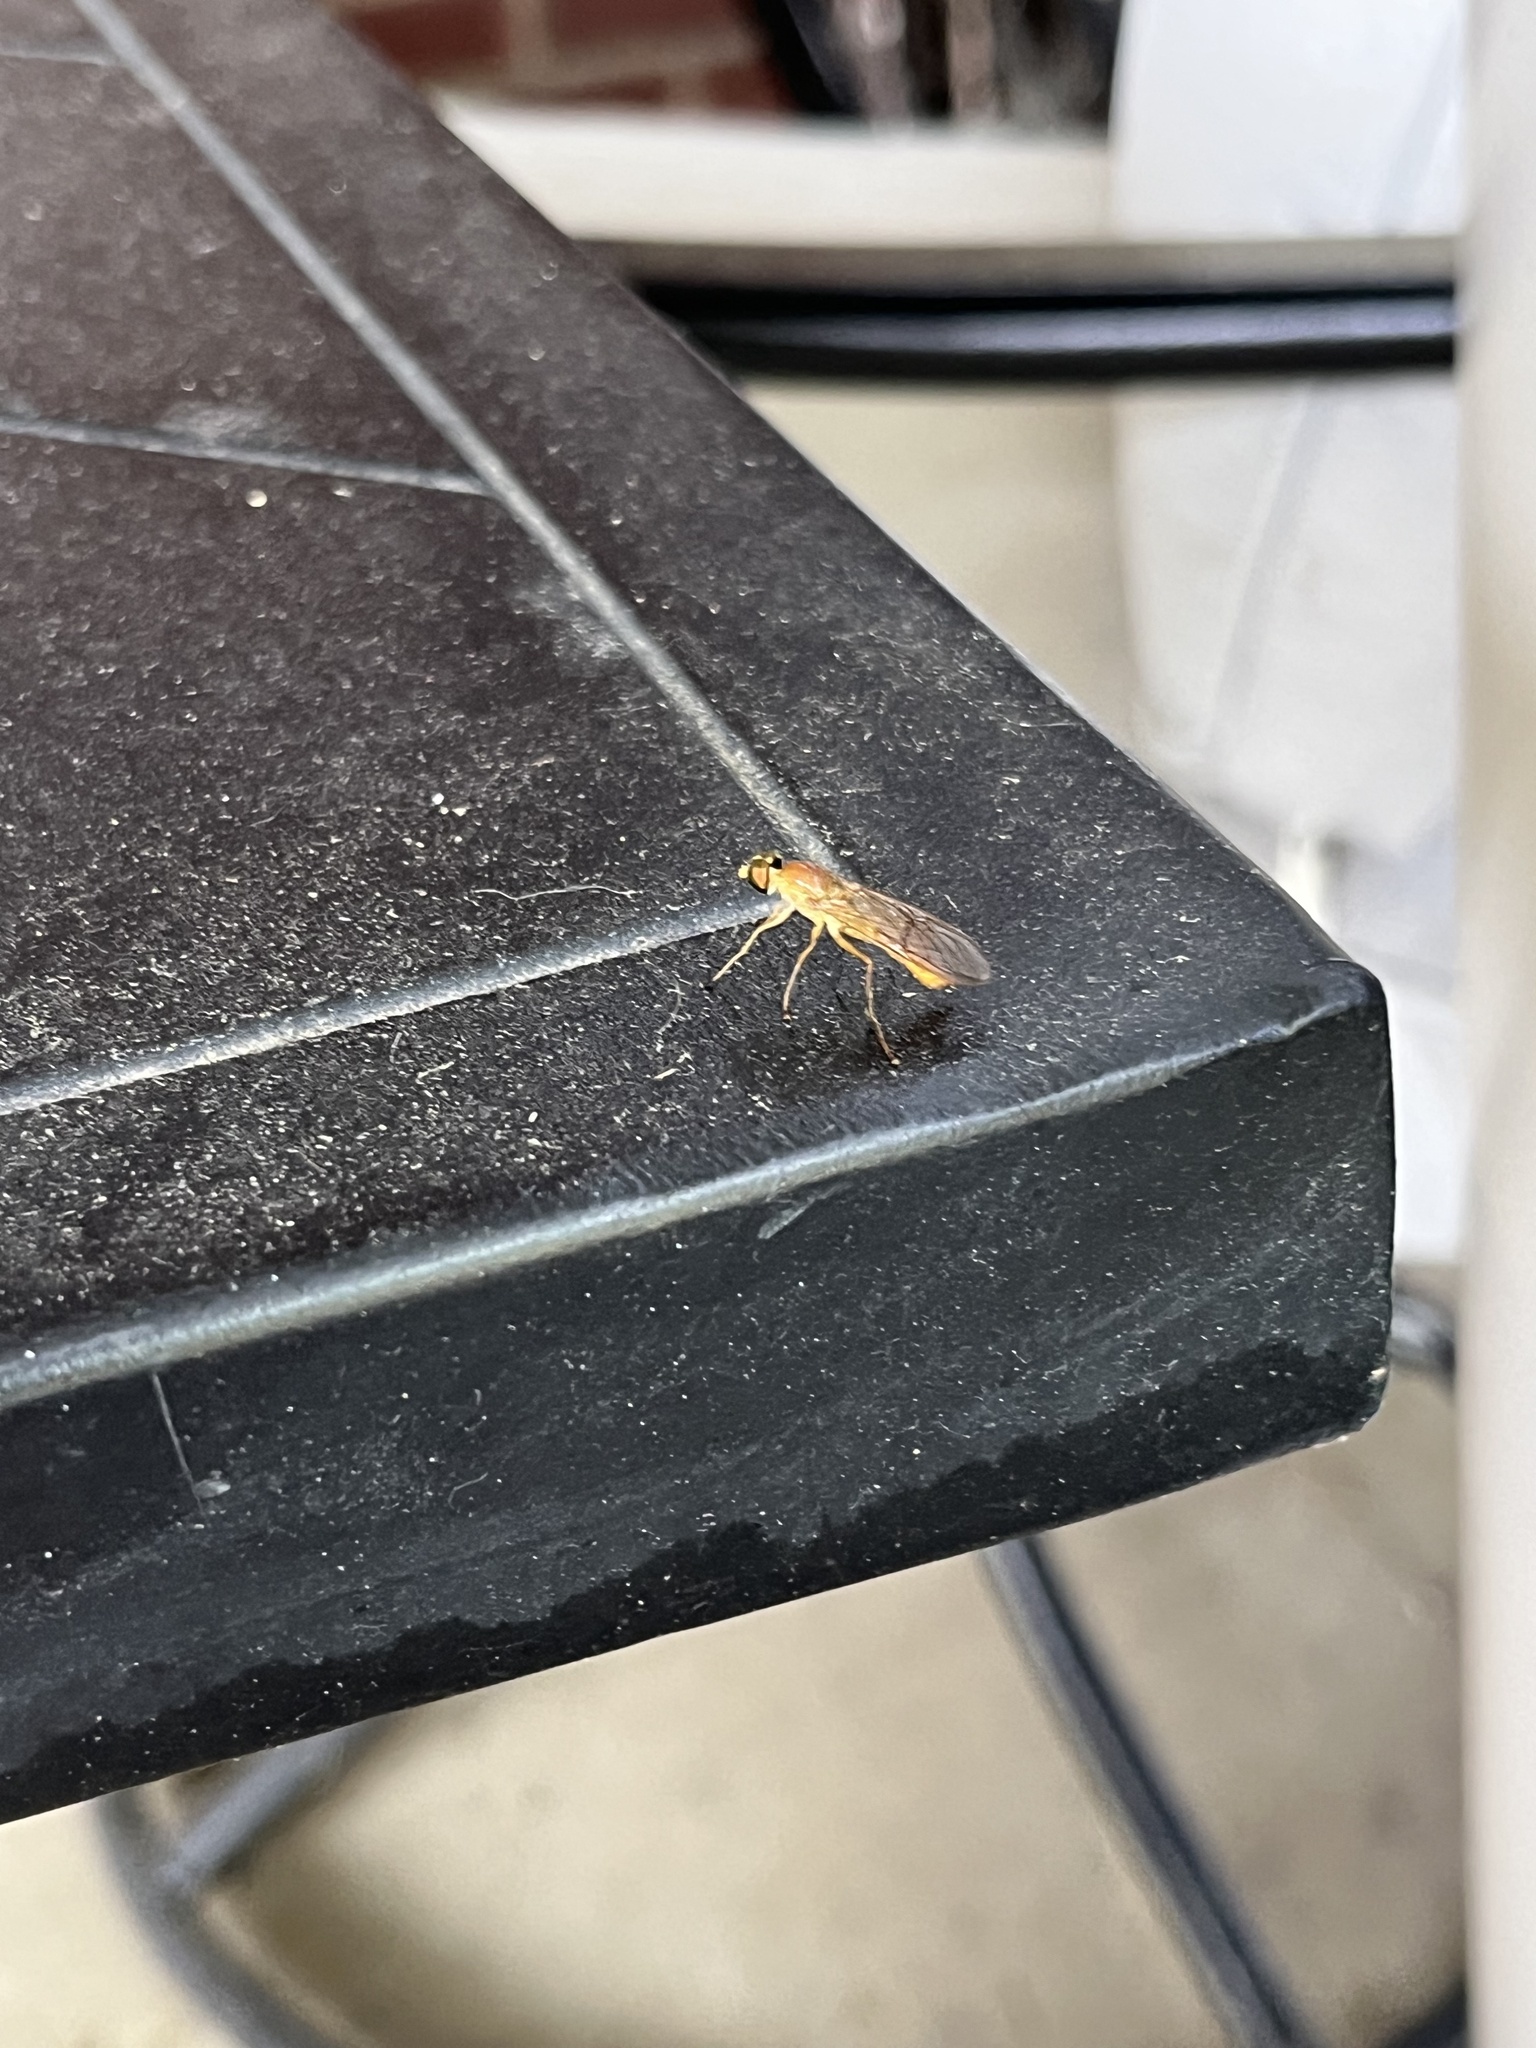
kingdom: Animalia
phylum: Arthropoda
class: Insecta
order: Diptera
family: Stratiomyidae
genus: Ptecticus
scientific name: Ptecticus trivittatus
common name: Compost fly
